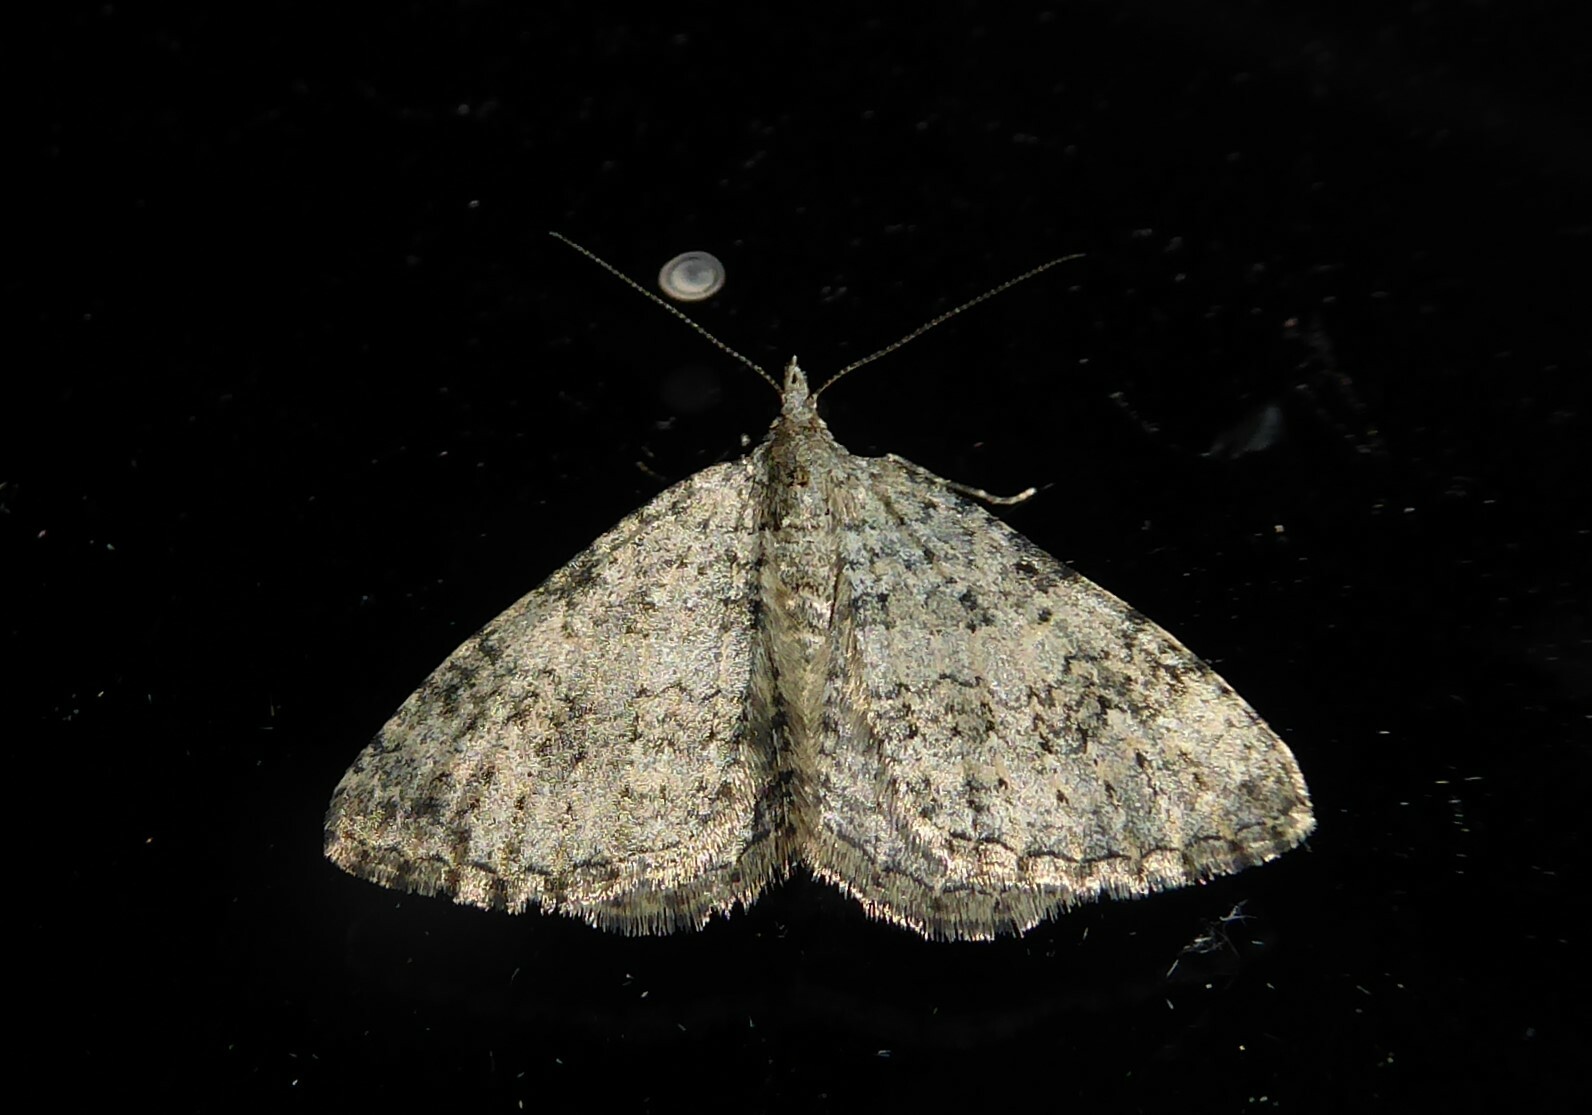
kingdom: Animalia
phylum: Arthropoda
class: Insecta
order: Lepidoptera
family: Geometridae
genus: Helastia
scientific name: Helastia corcularia
